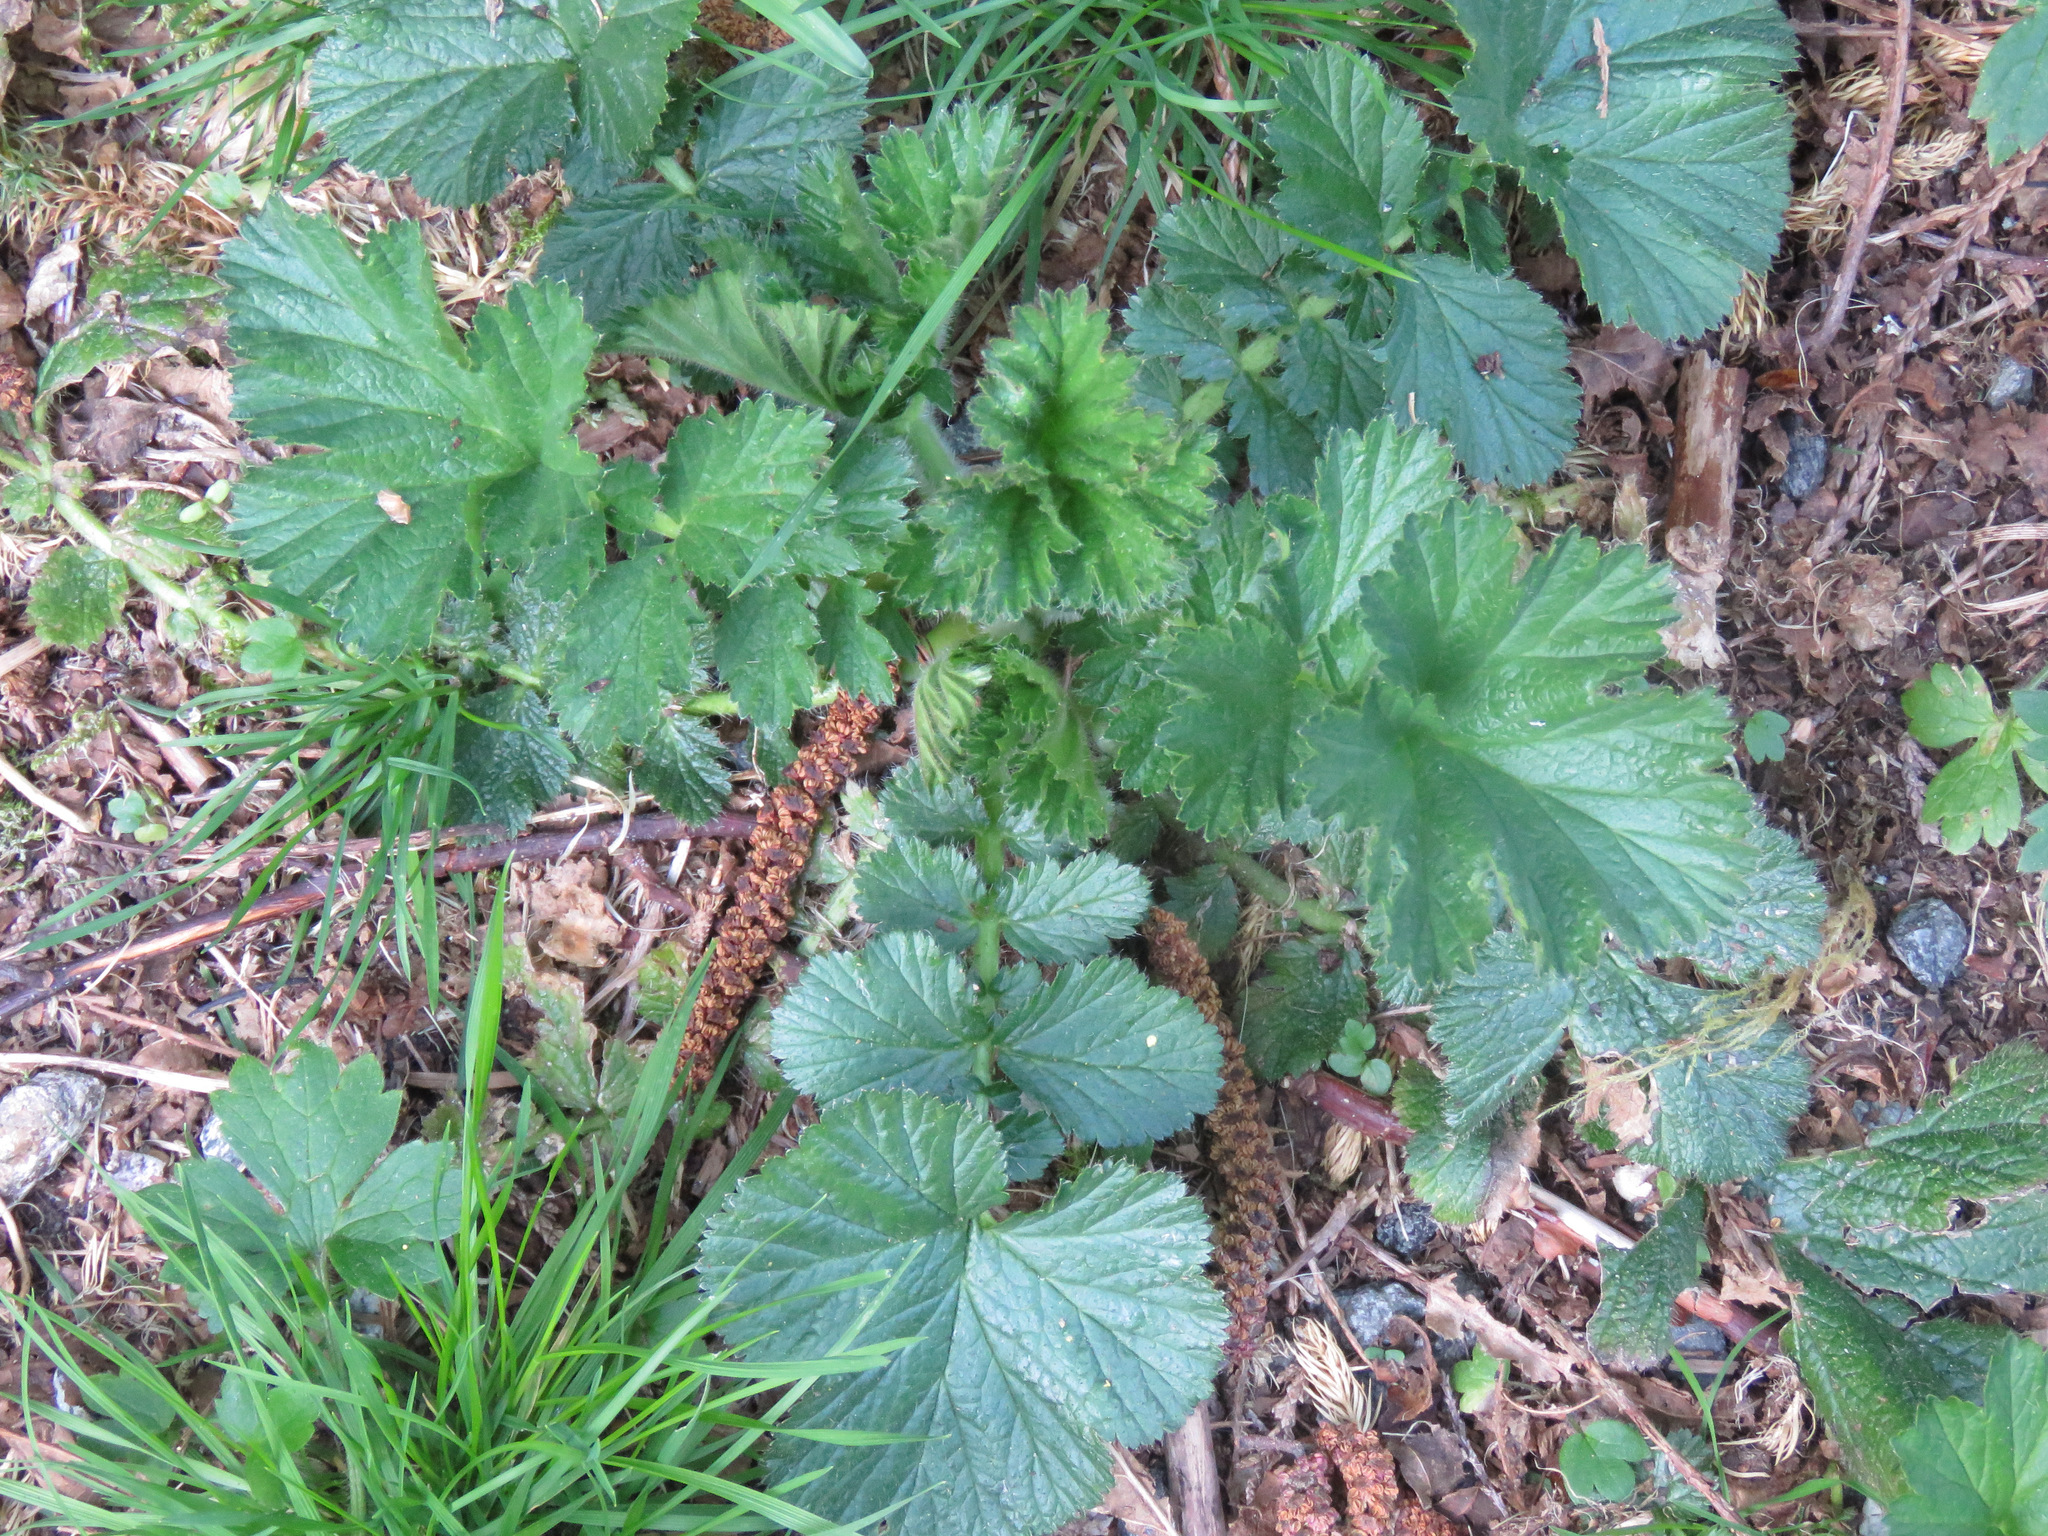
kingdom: Plantae
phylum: Tracheophyta
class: Magnoliopsida
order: Rosales
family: Rosaceae
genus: Geum
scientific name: Geum macrophyllum
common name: Large-leaved avens
